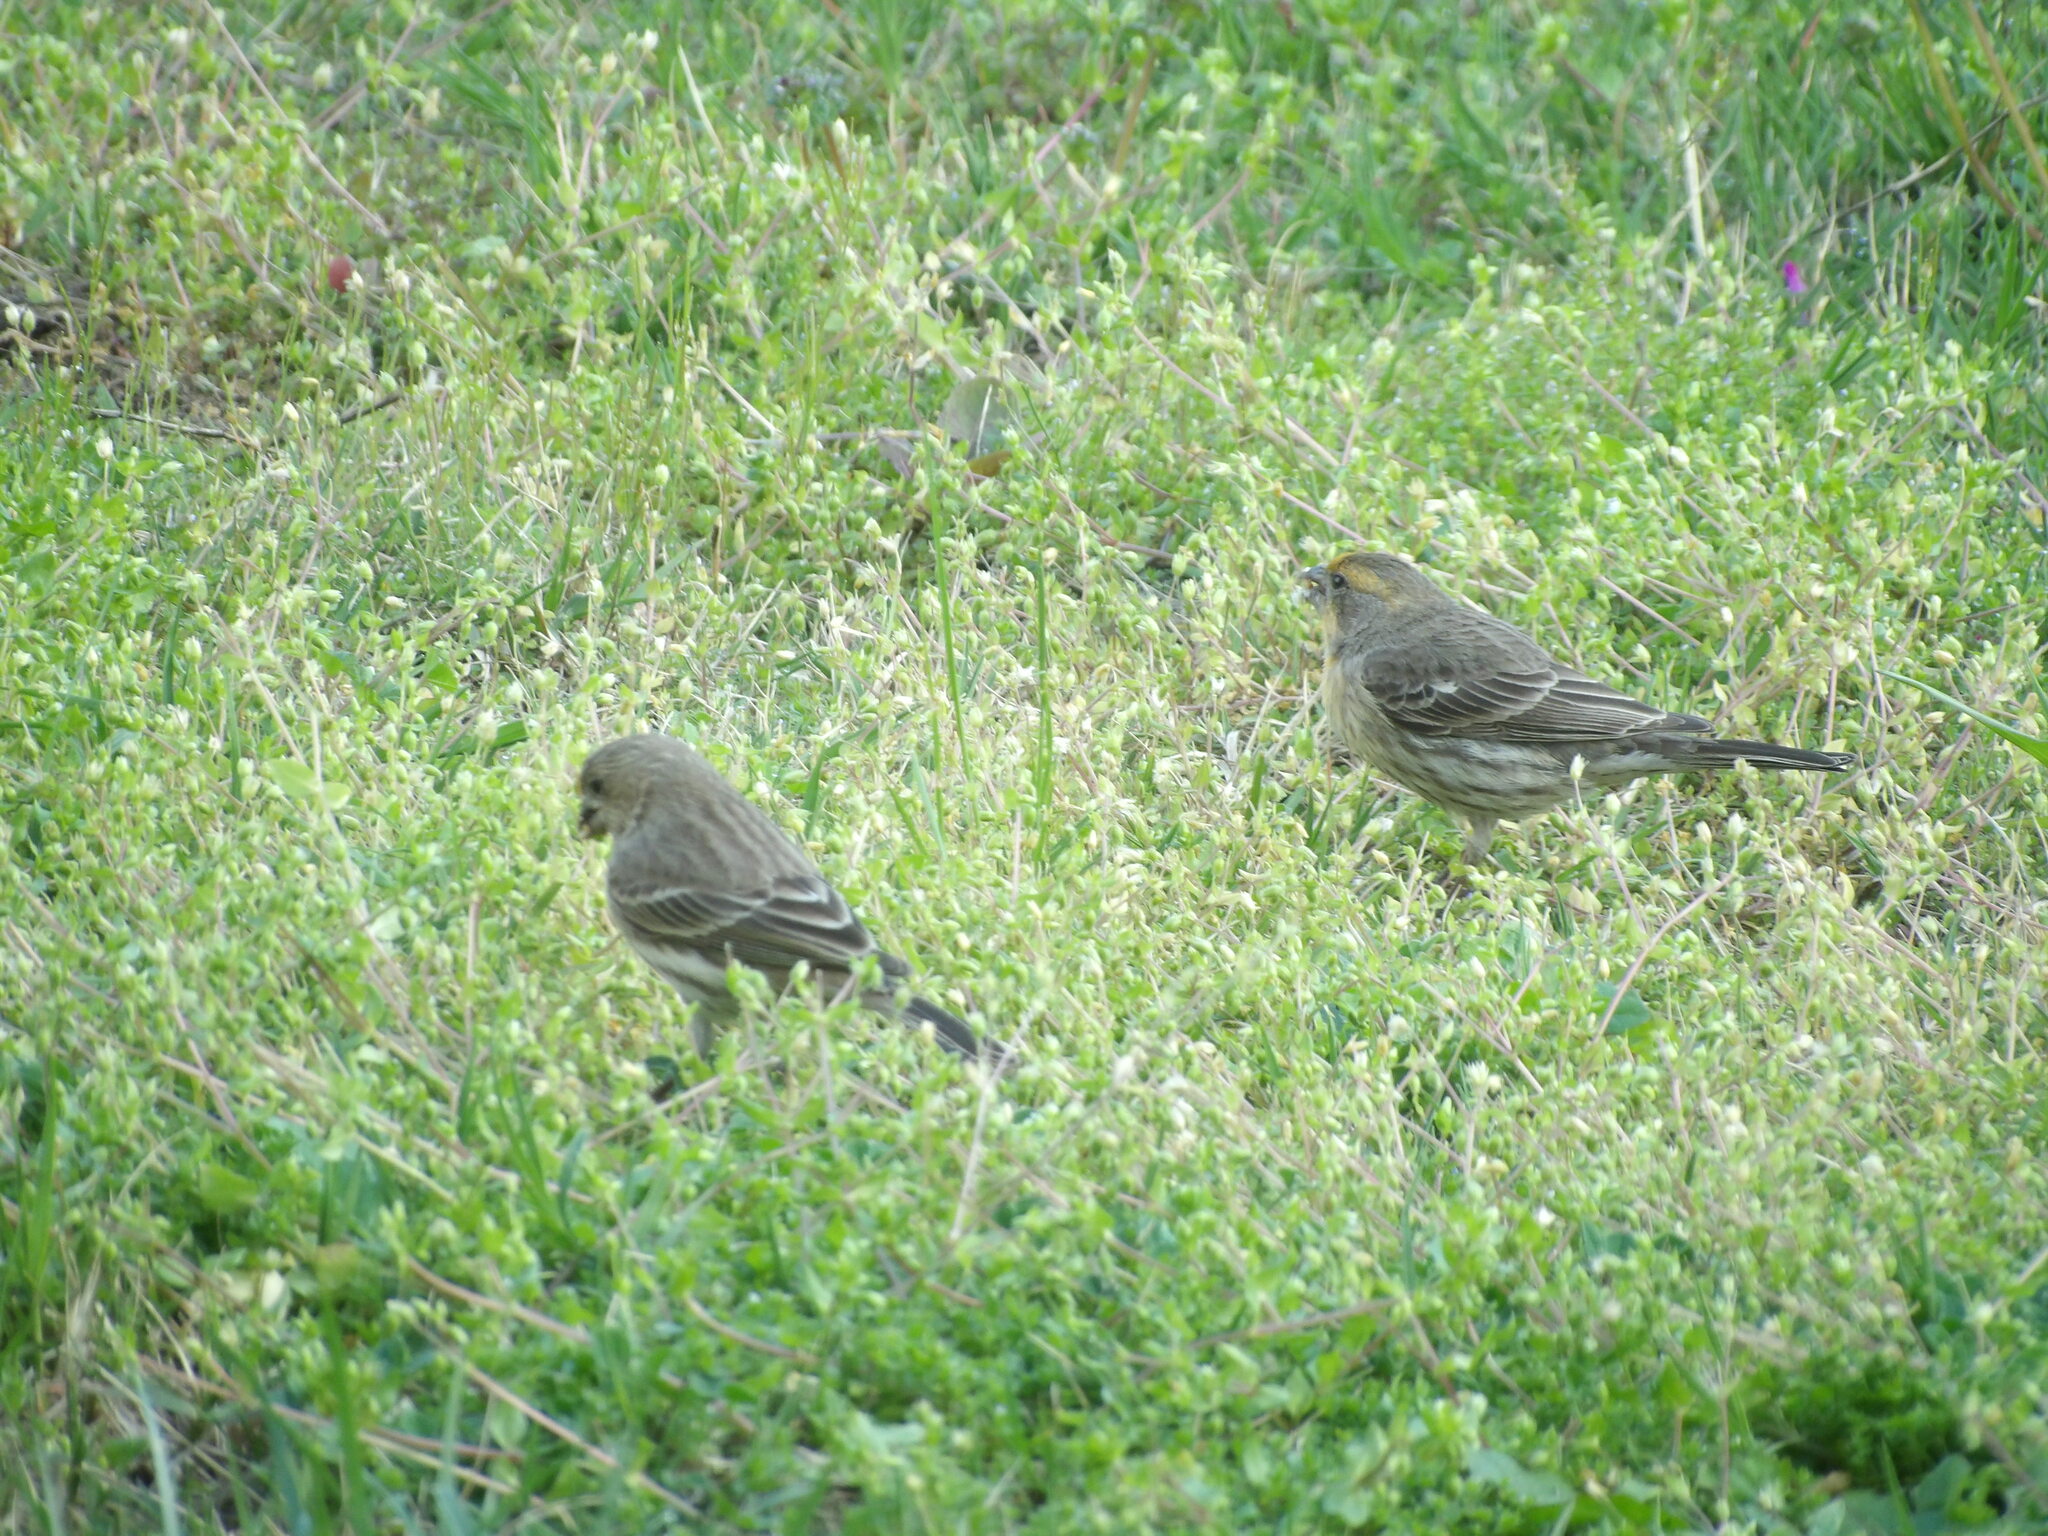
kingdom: Animalia
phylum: Chordata
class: Aves
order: Passeriformes
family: Fringillidae
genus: Haemorhous
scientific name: Haemorhous mexicanus
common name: House finch
